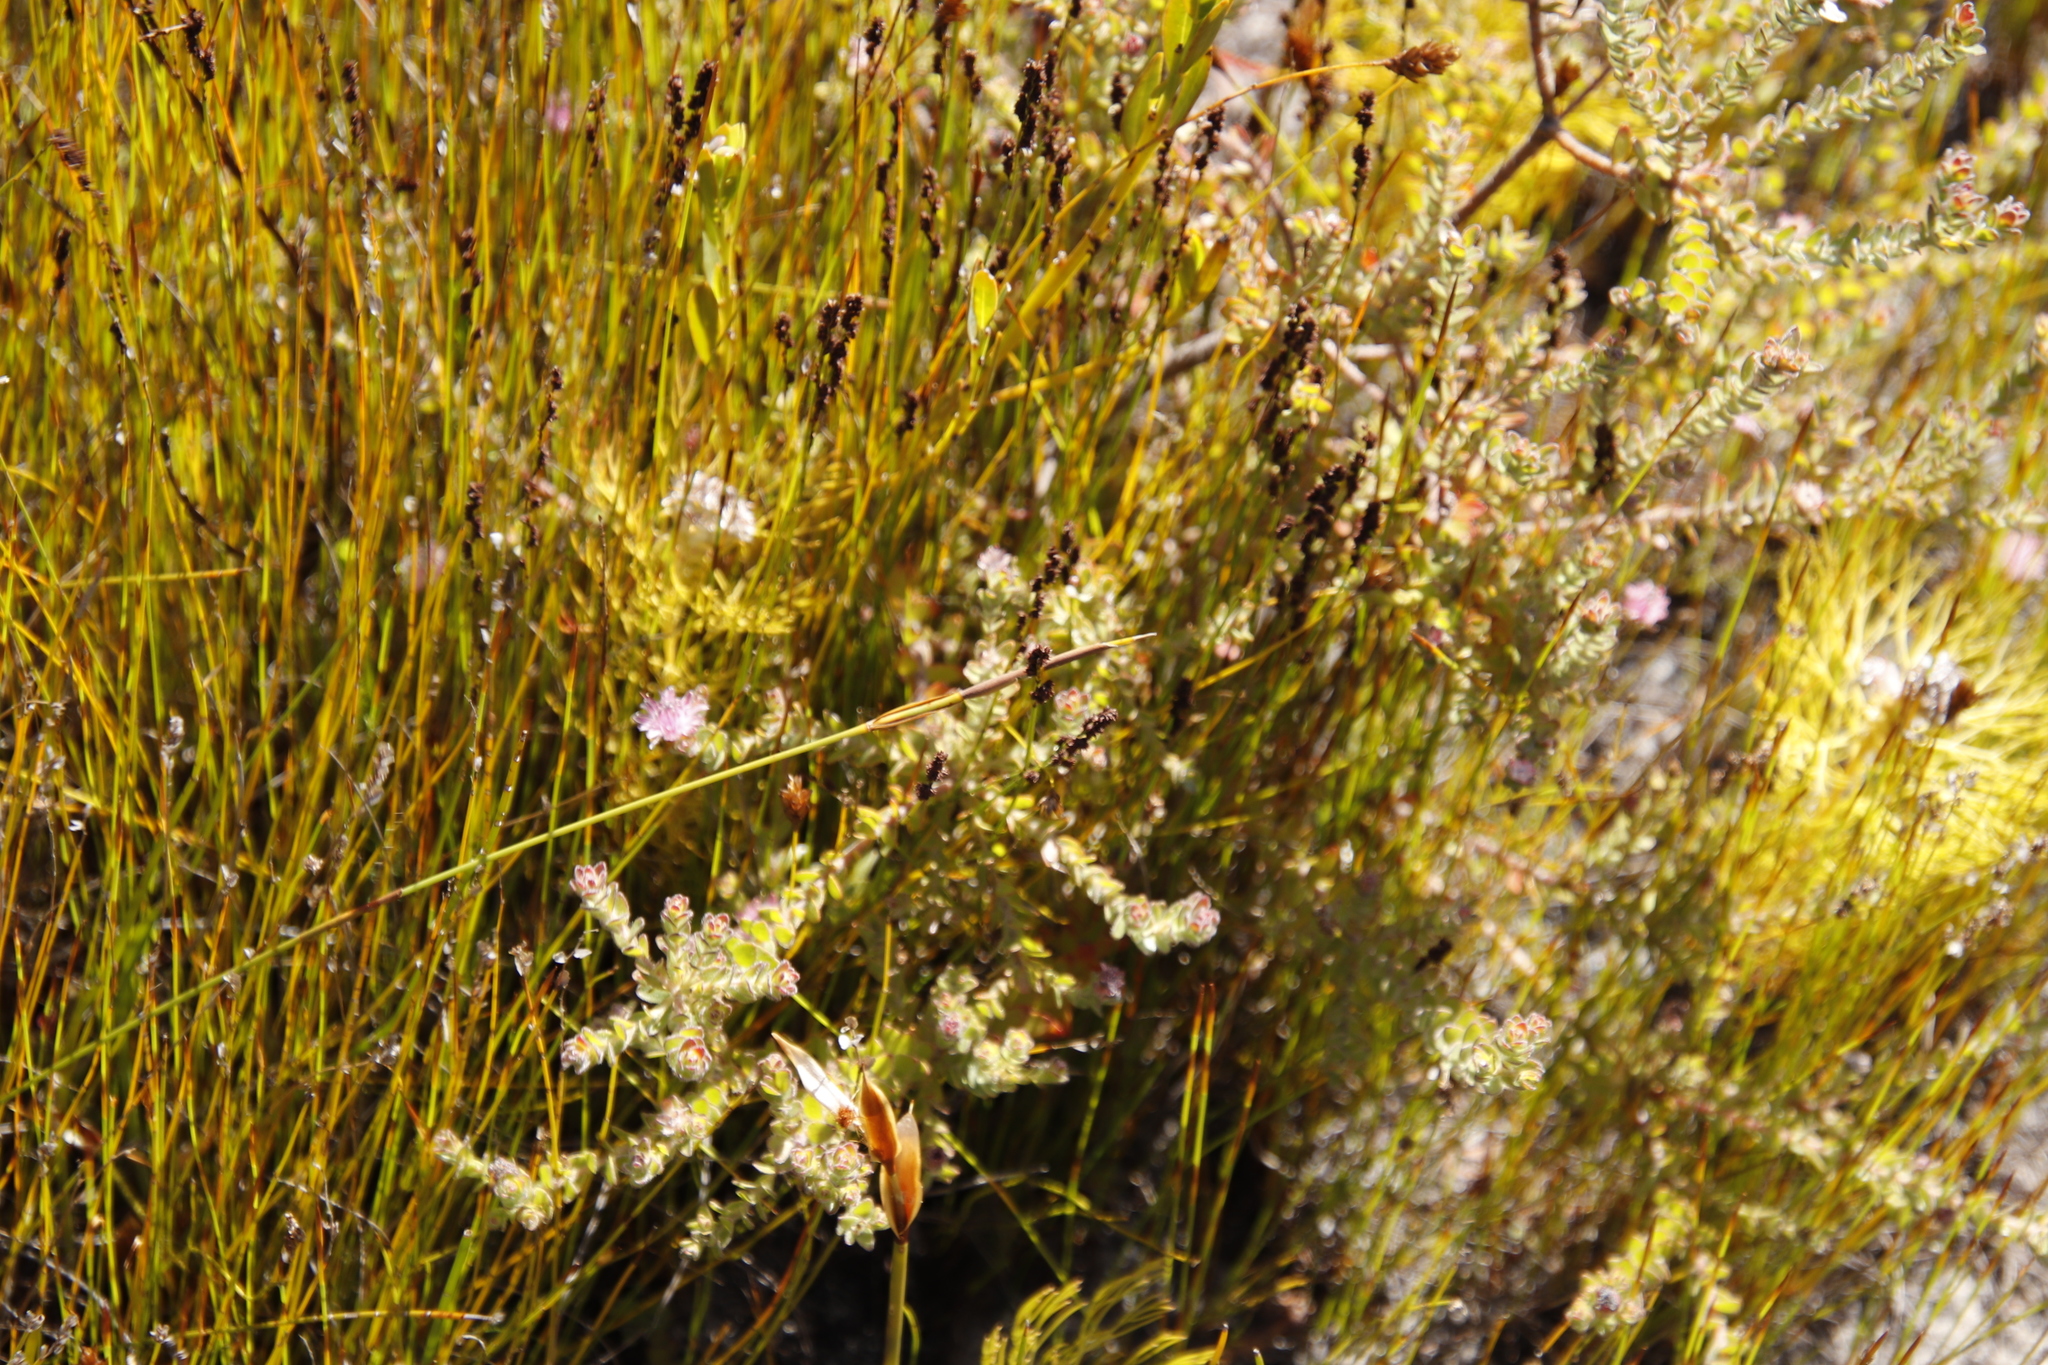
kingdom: Plantae
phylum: Tracheophyta
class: Magnoliopsida
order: Proteales
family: Proteaceae
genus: Diastella
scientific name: Diastella divaricata
